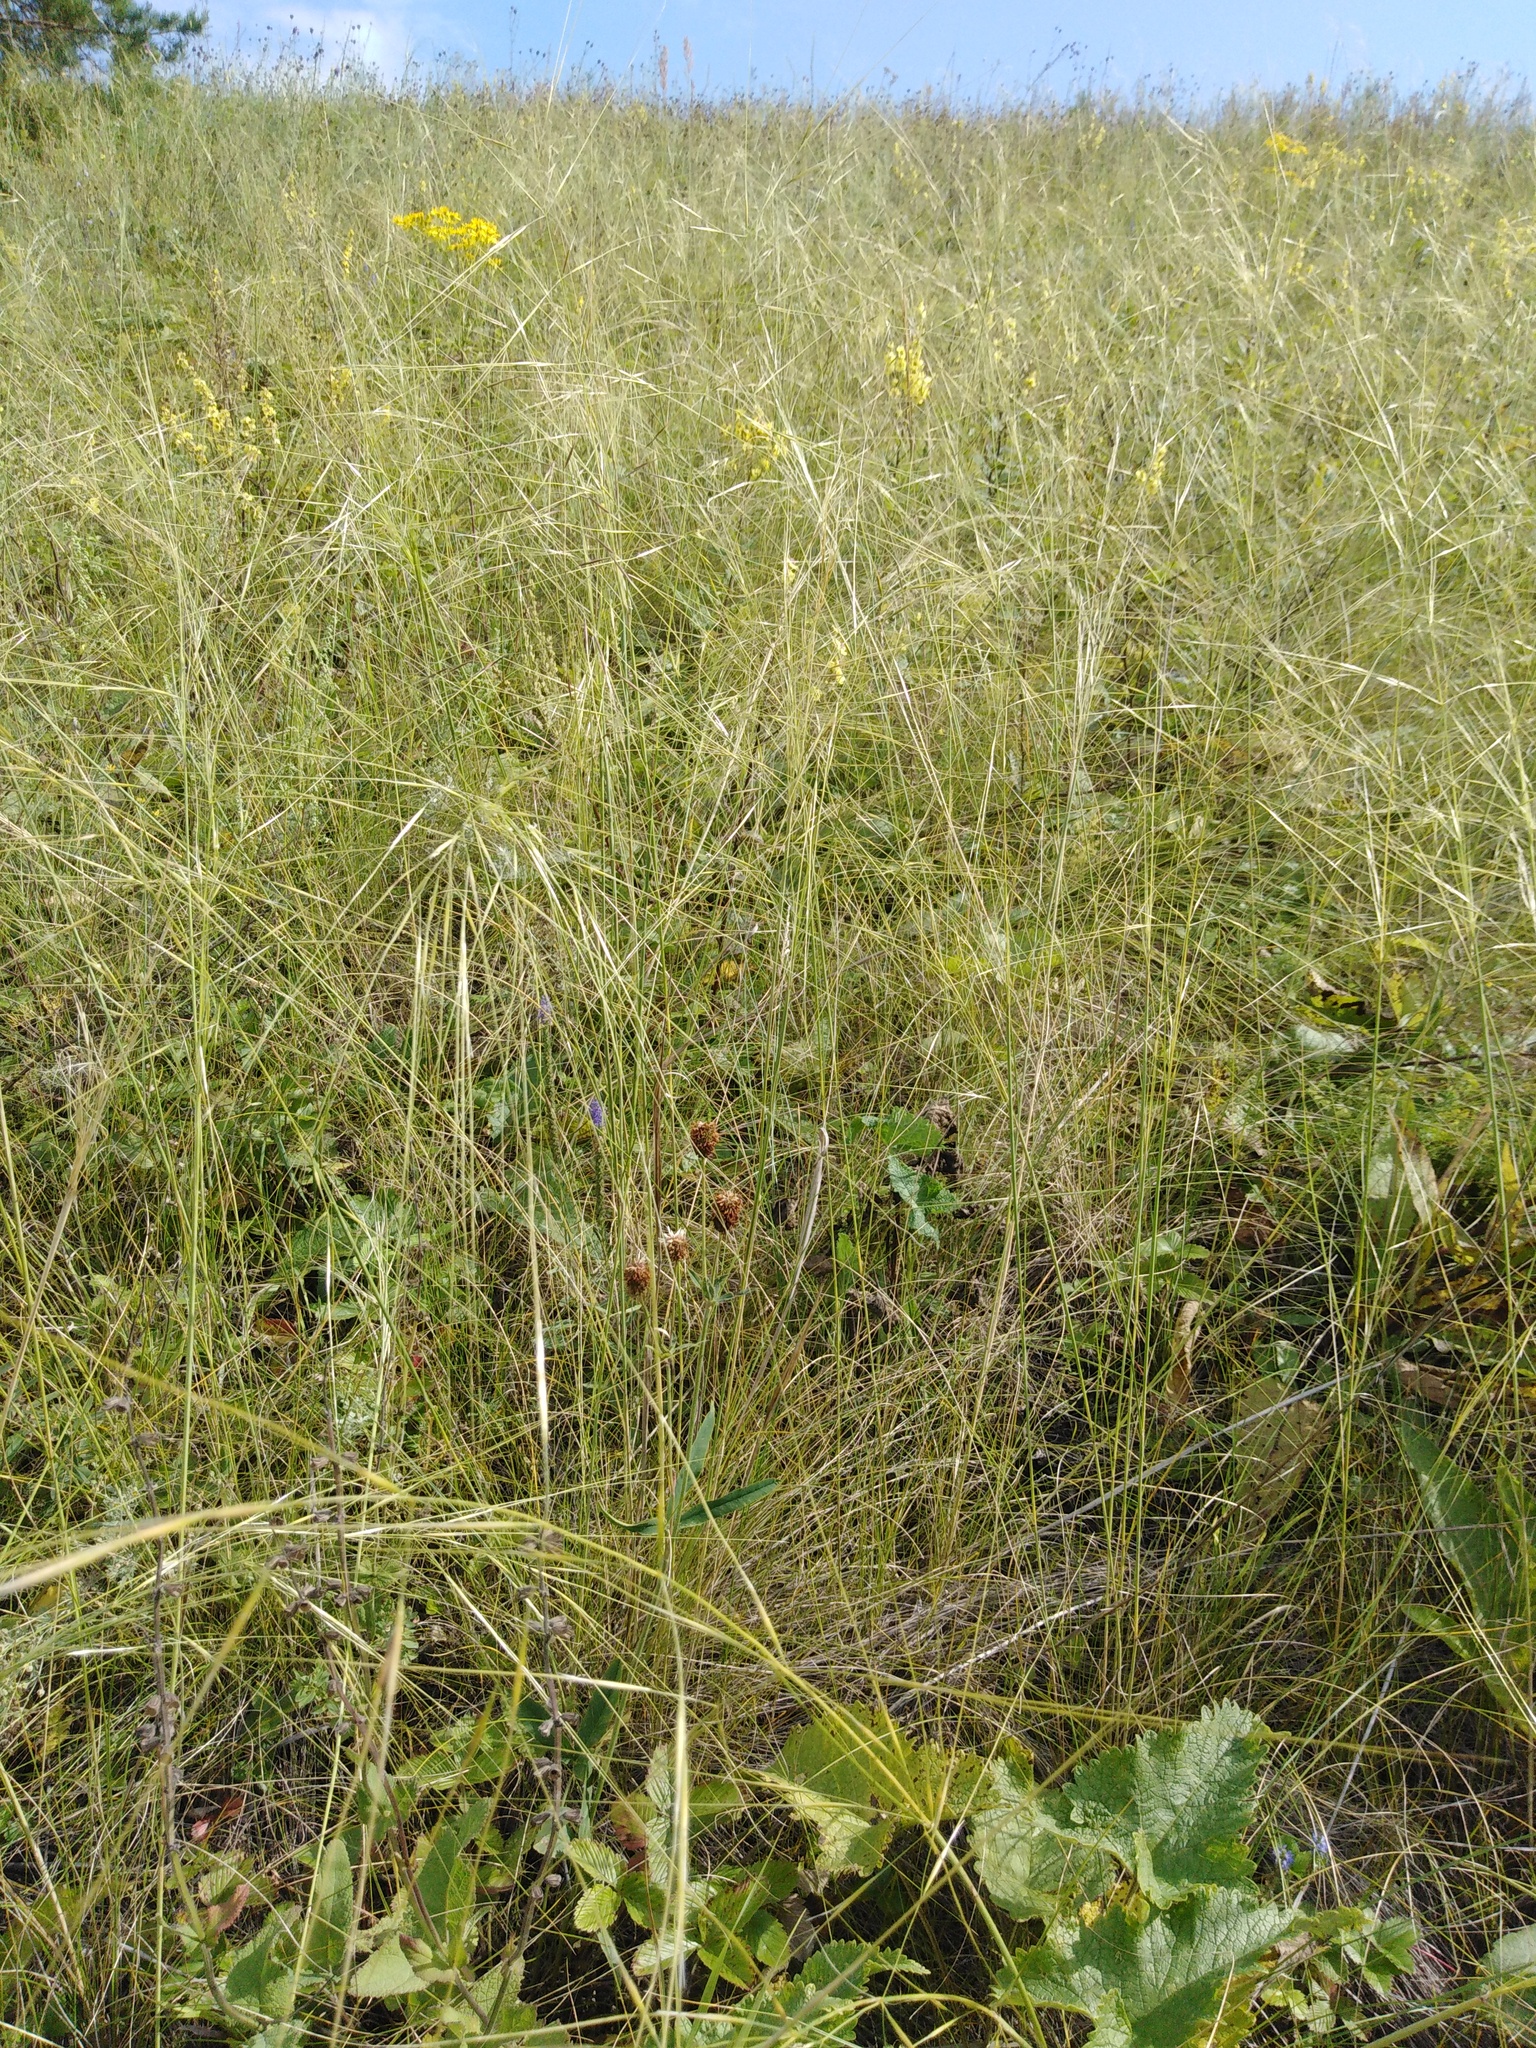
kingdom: Plantae
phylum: Tracheophyta
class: Liliopsida
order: Poales
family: Poaceae
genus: Stipa
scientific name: Stipa capillata
